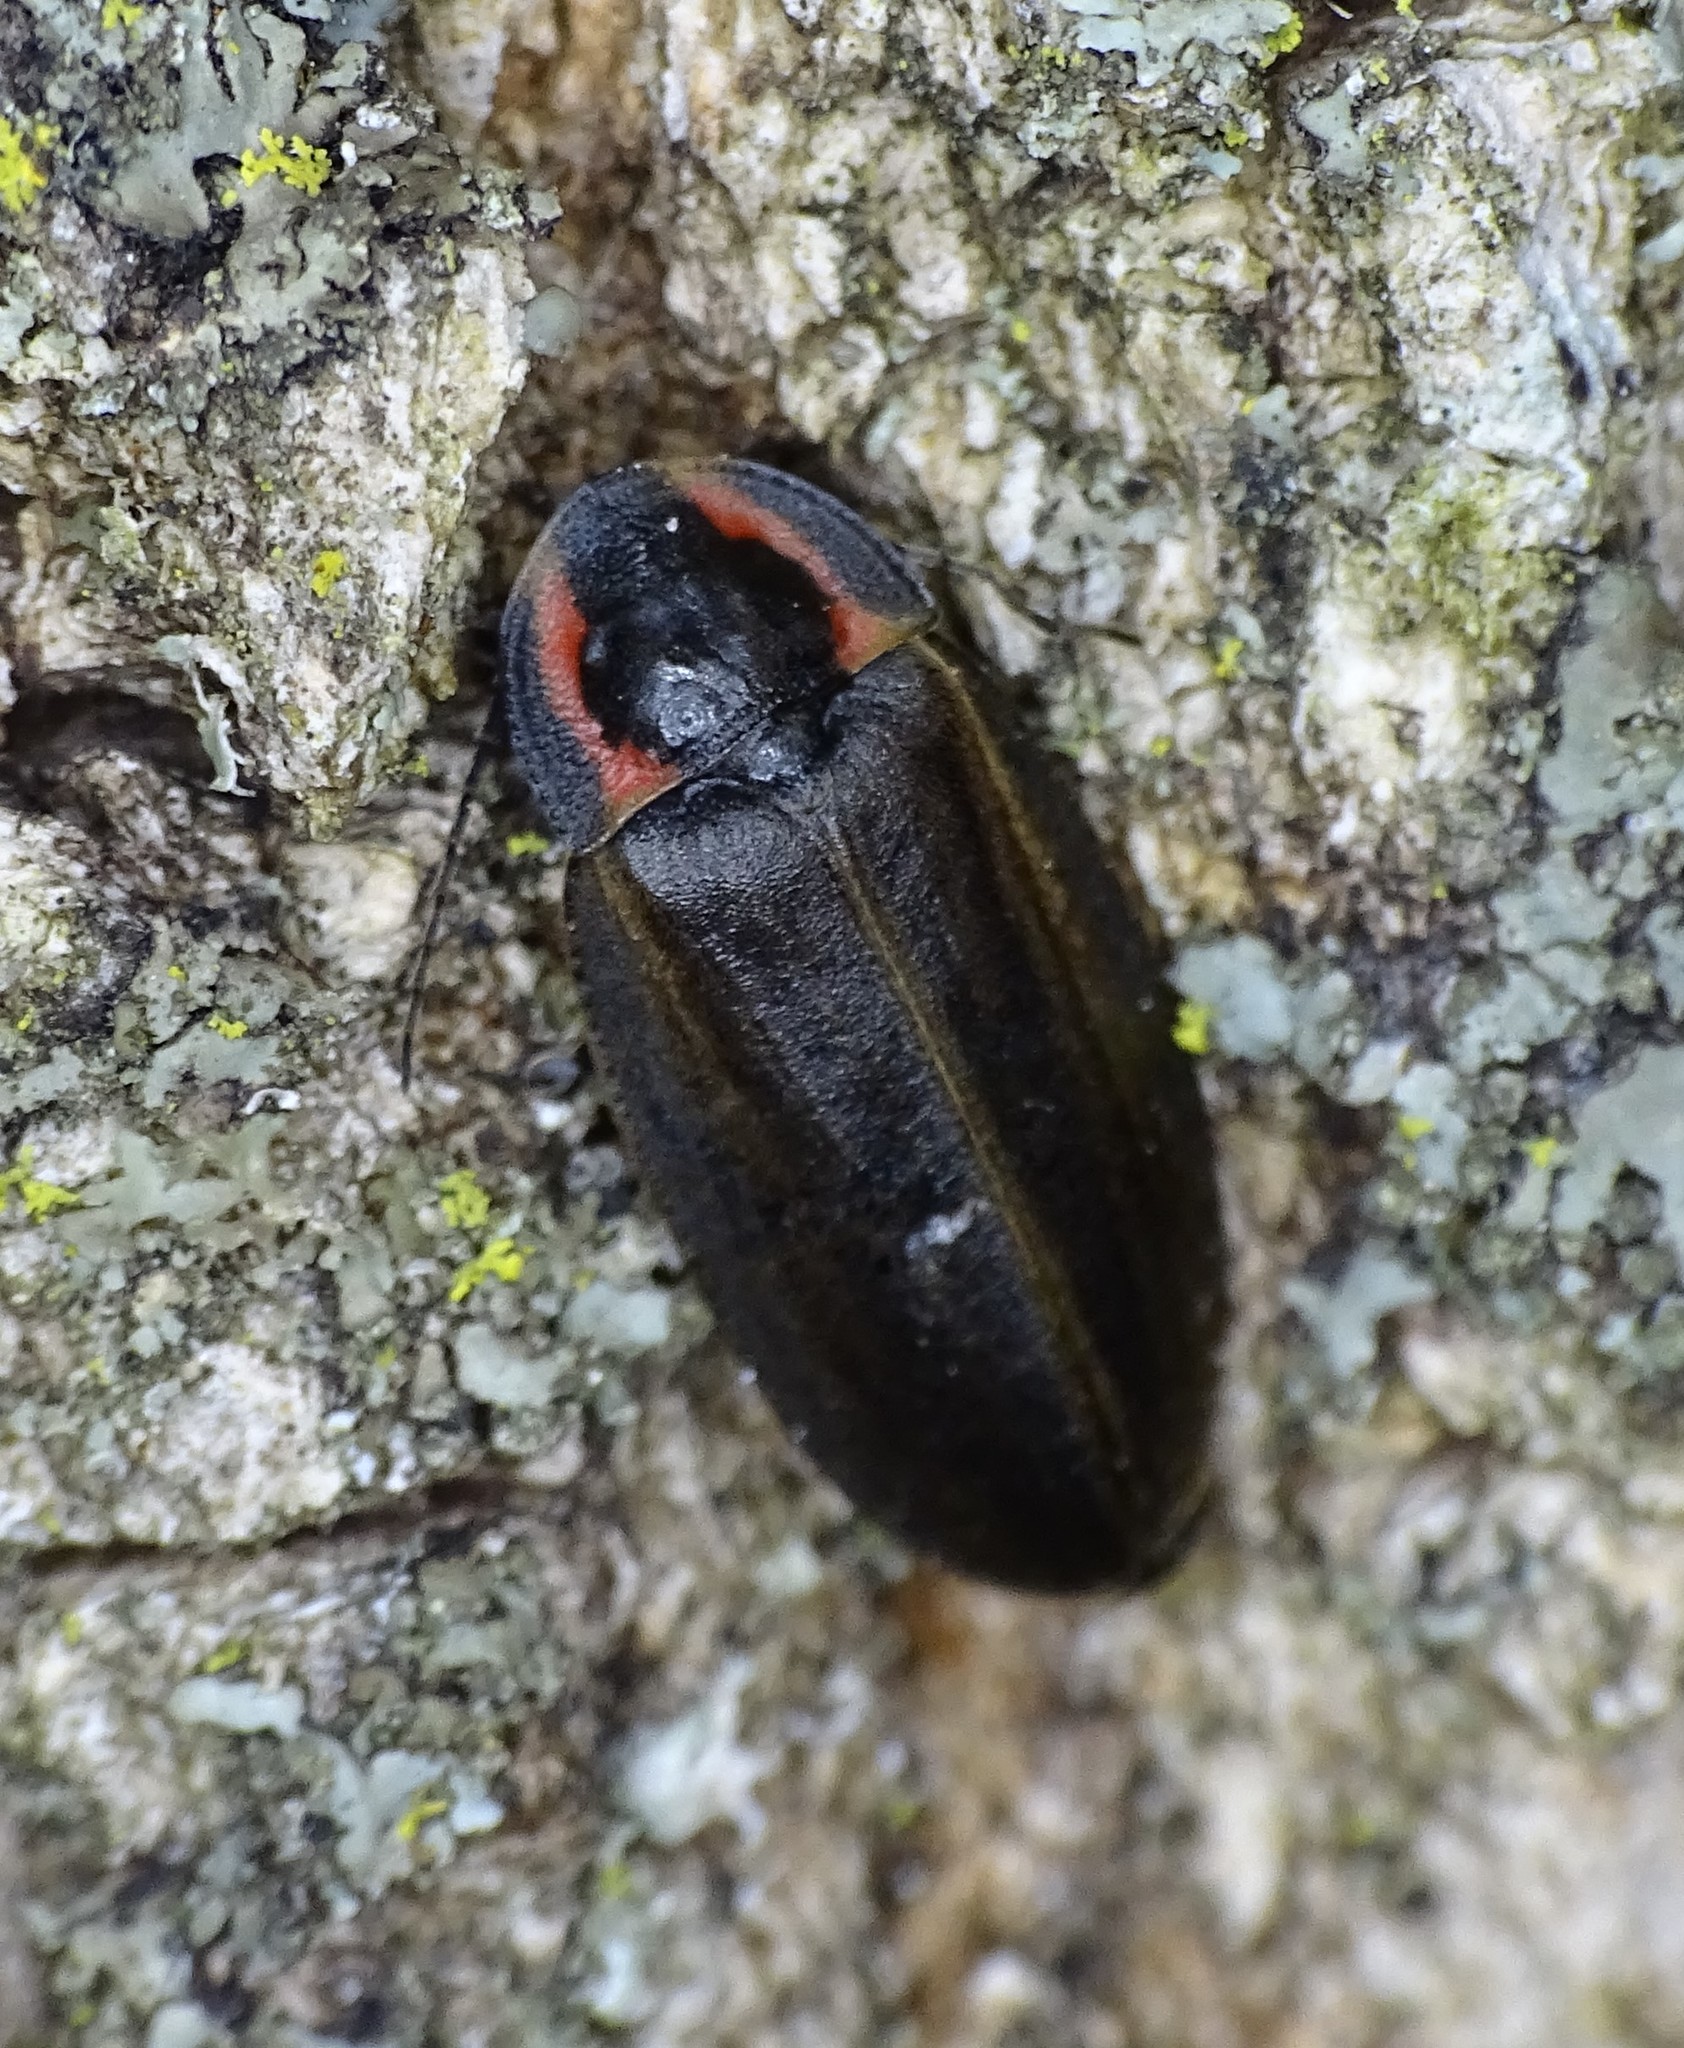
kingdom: Animalia
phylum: Arthropoda
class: Insecta
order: Coleoptera
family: Lampyridae
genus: Photinus
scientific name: Photinus corrusca
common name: Winter firefly
